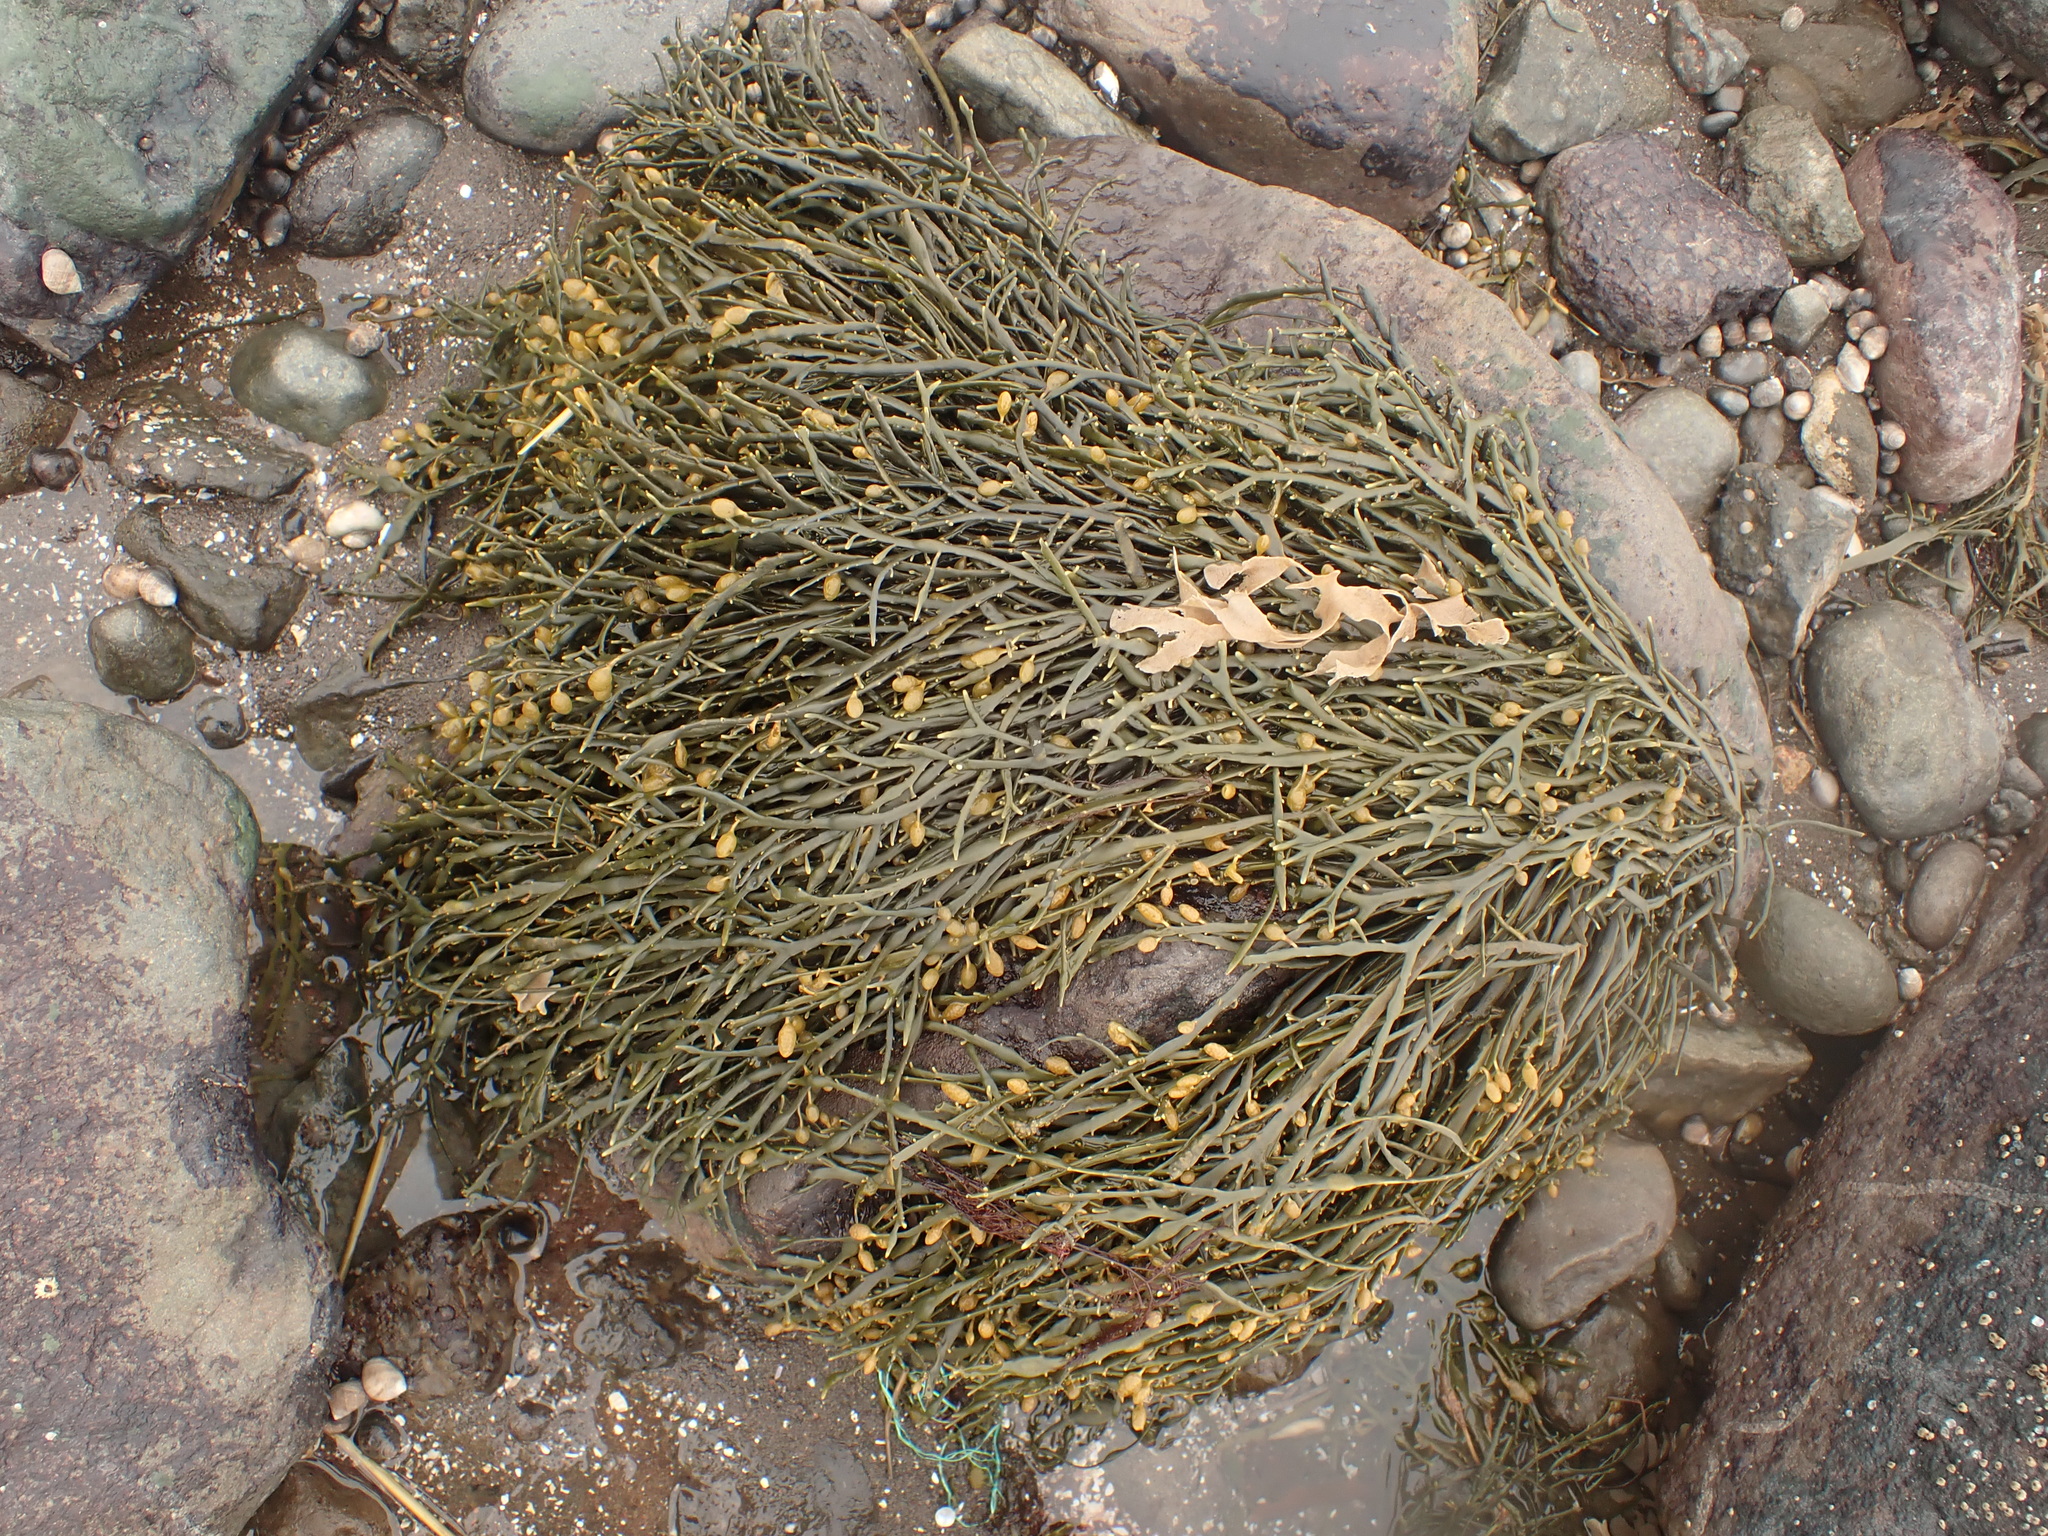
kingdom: Chromista
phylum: Ochrophyta
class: Phaeophyceae
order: Fucales
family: Fucaceae
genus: Ascophyllum
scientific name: Ascophyllum nodosum
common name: Knotted wrack
